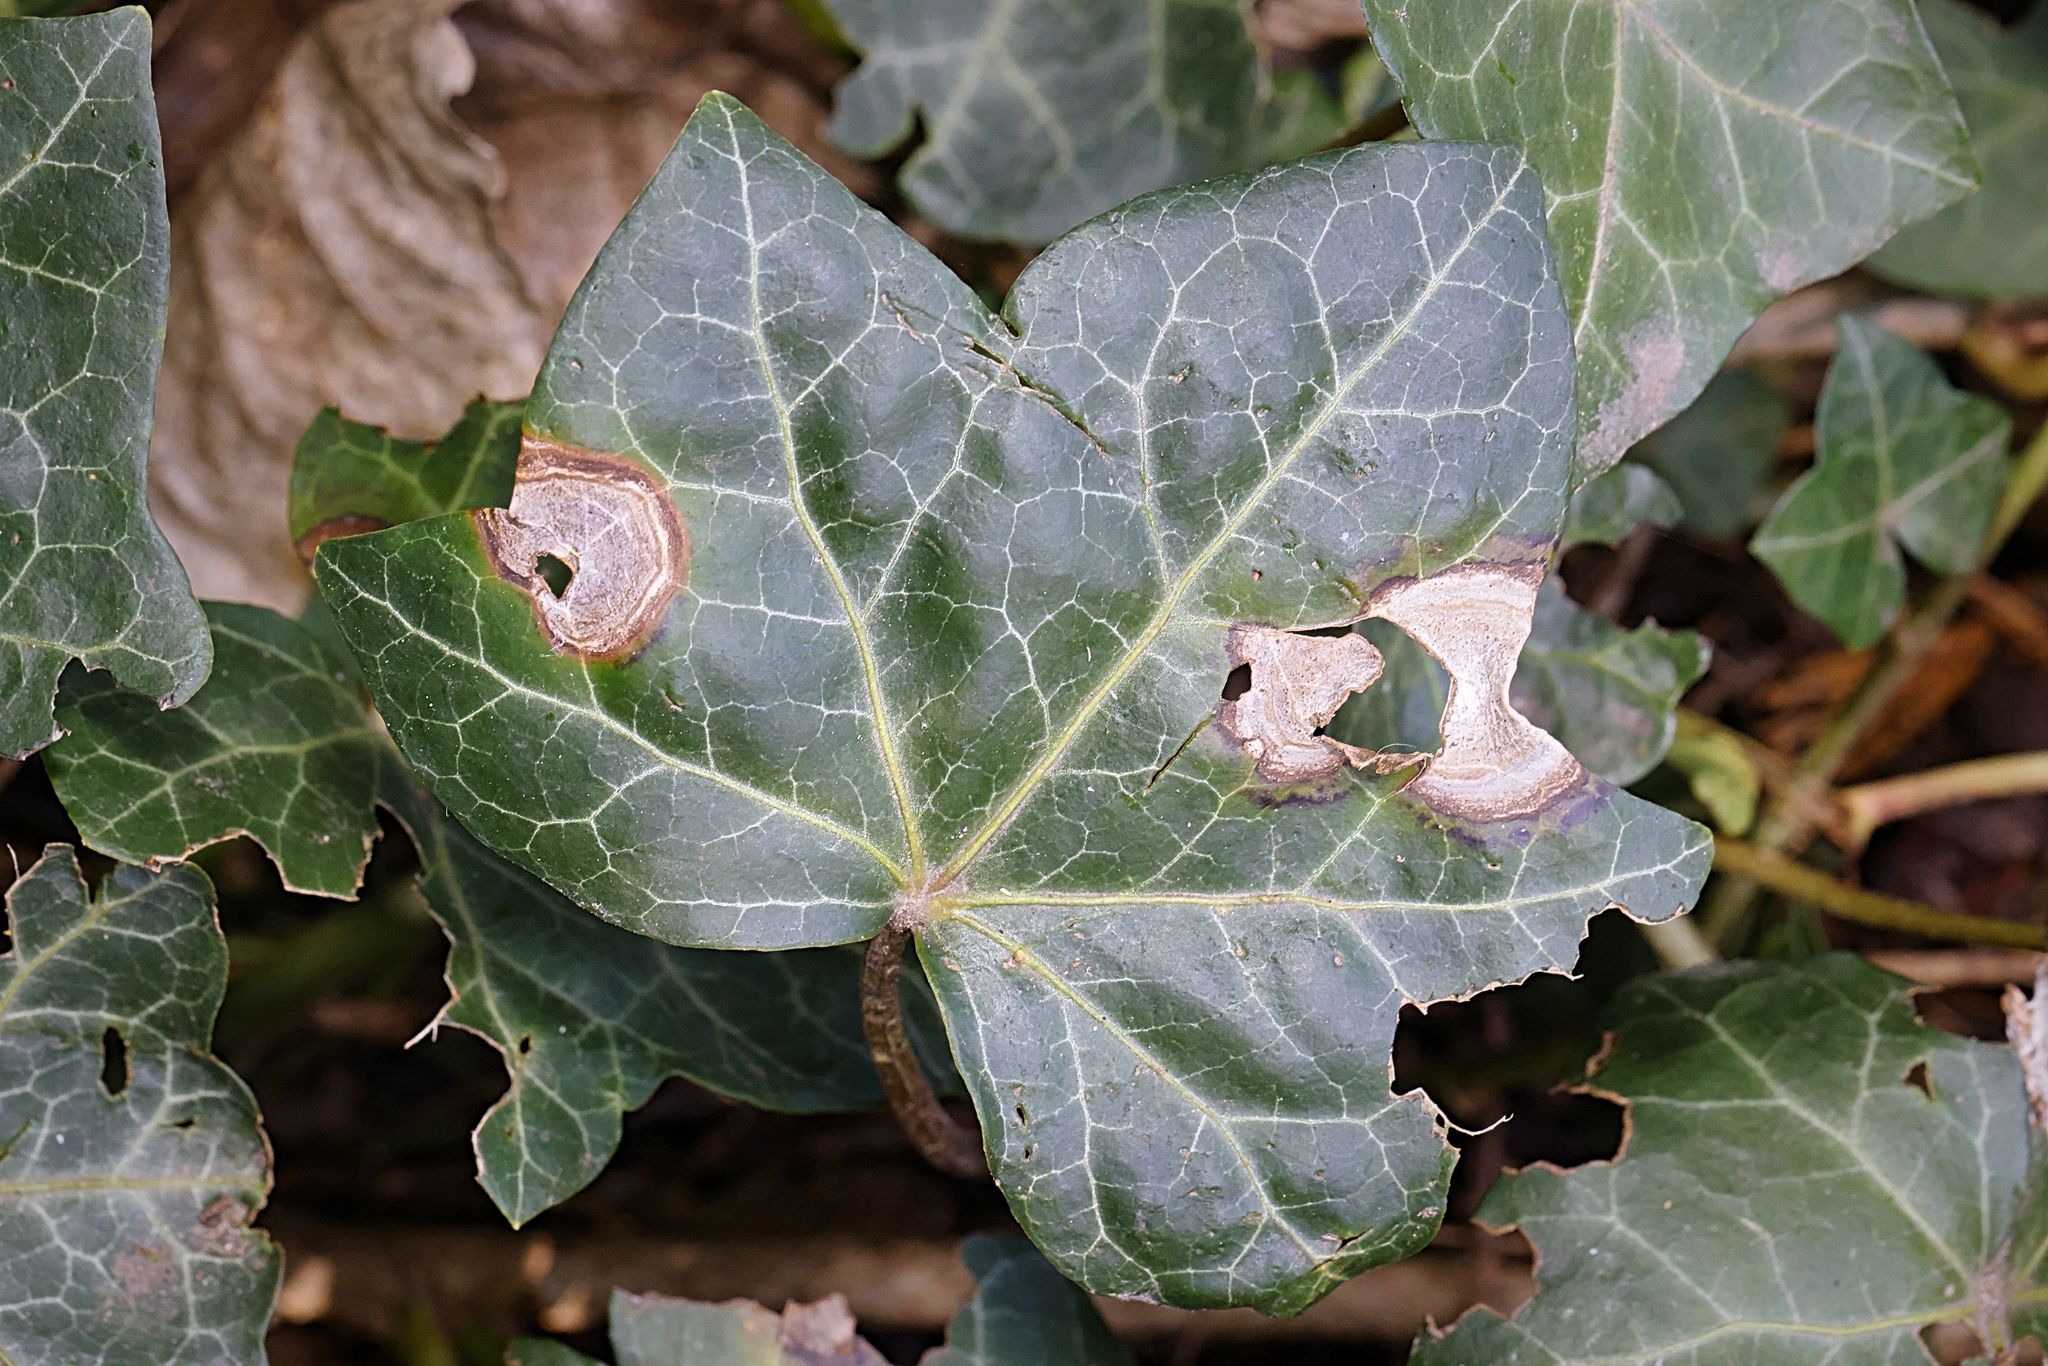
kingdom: Fungi
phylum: Ascomycota
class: Dothideomycetes
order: Pleosporales
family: Didymellaceae
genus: Boeremia
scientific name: Boeremia hedericola
